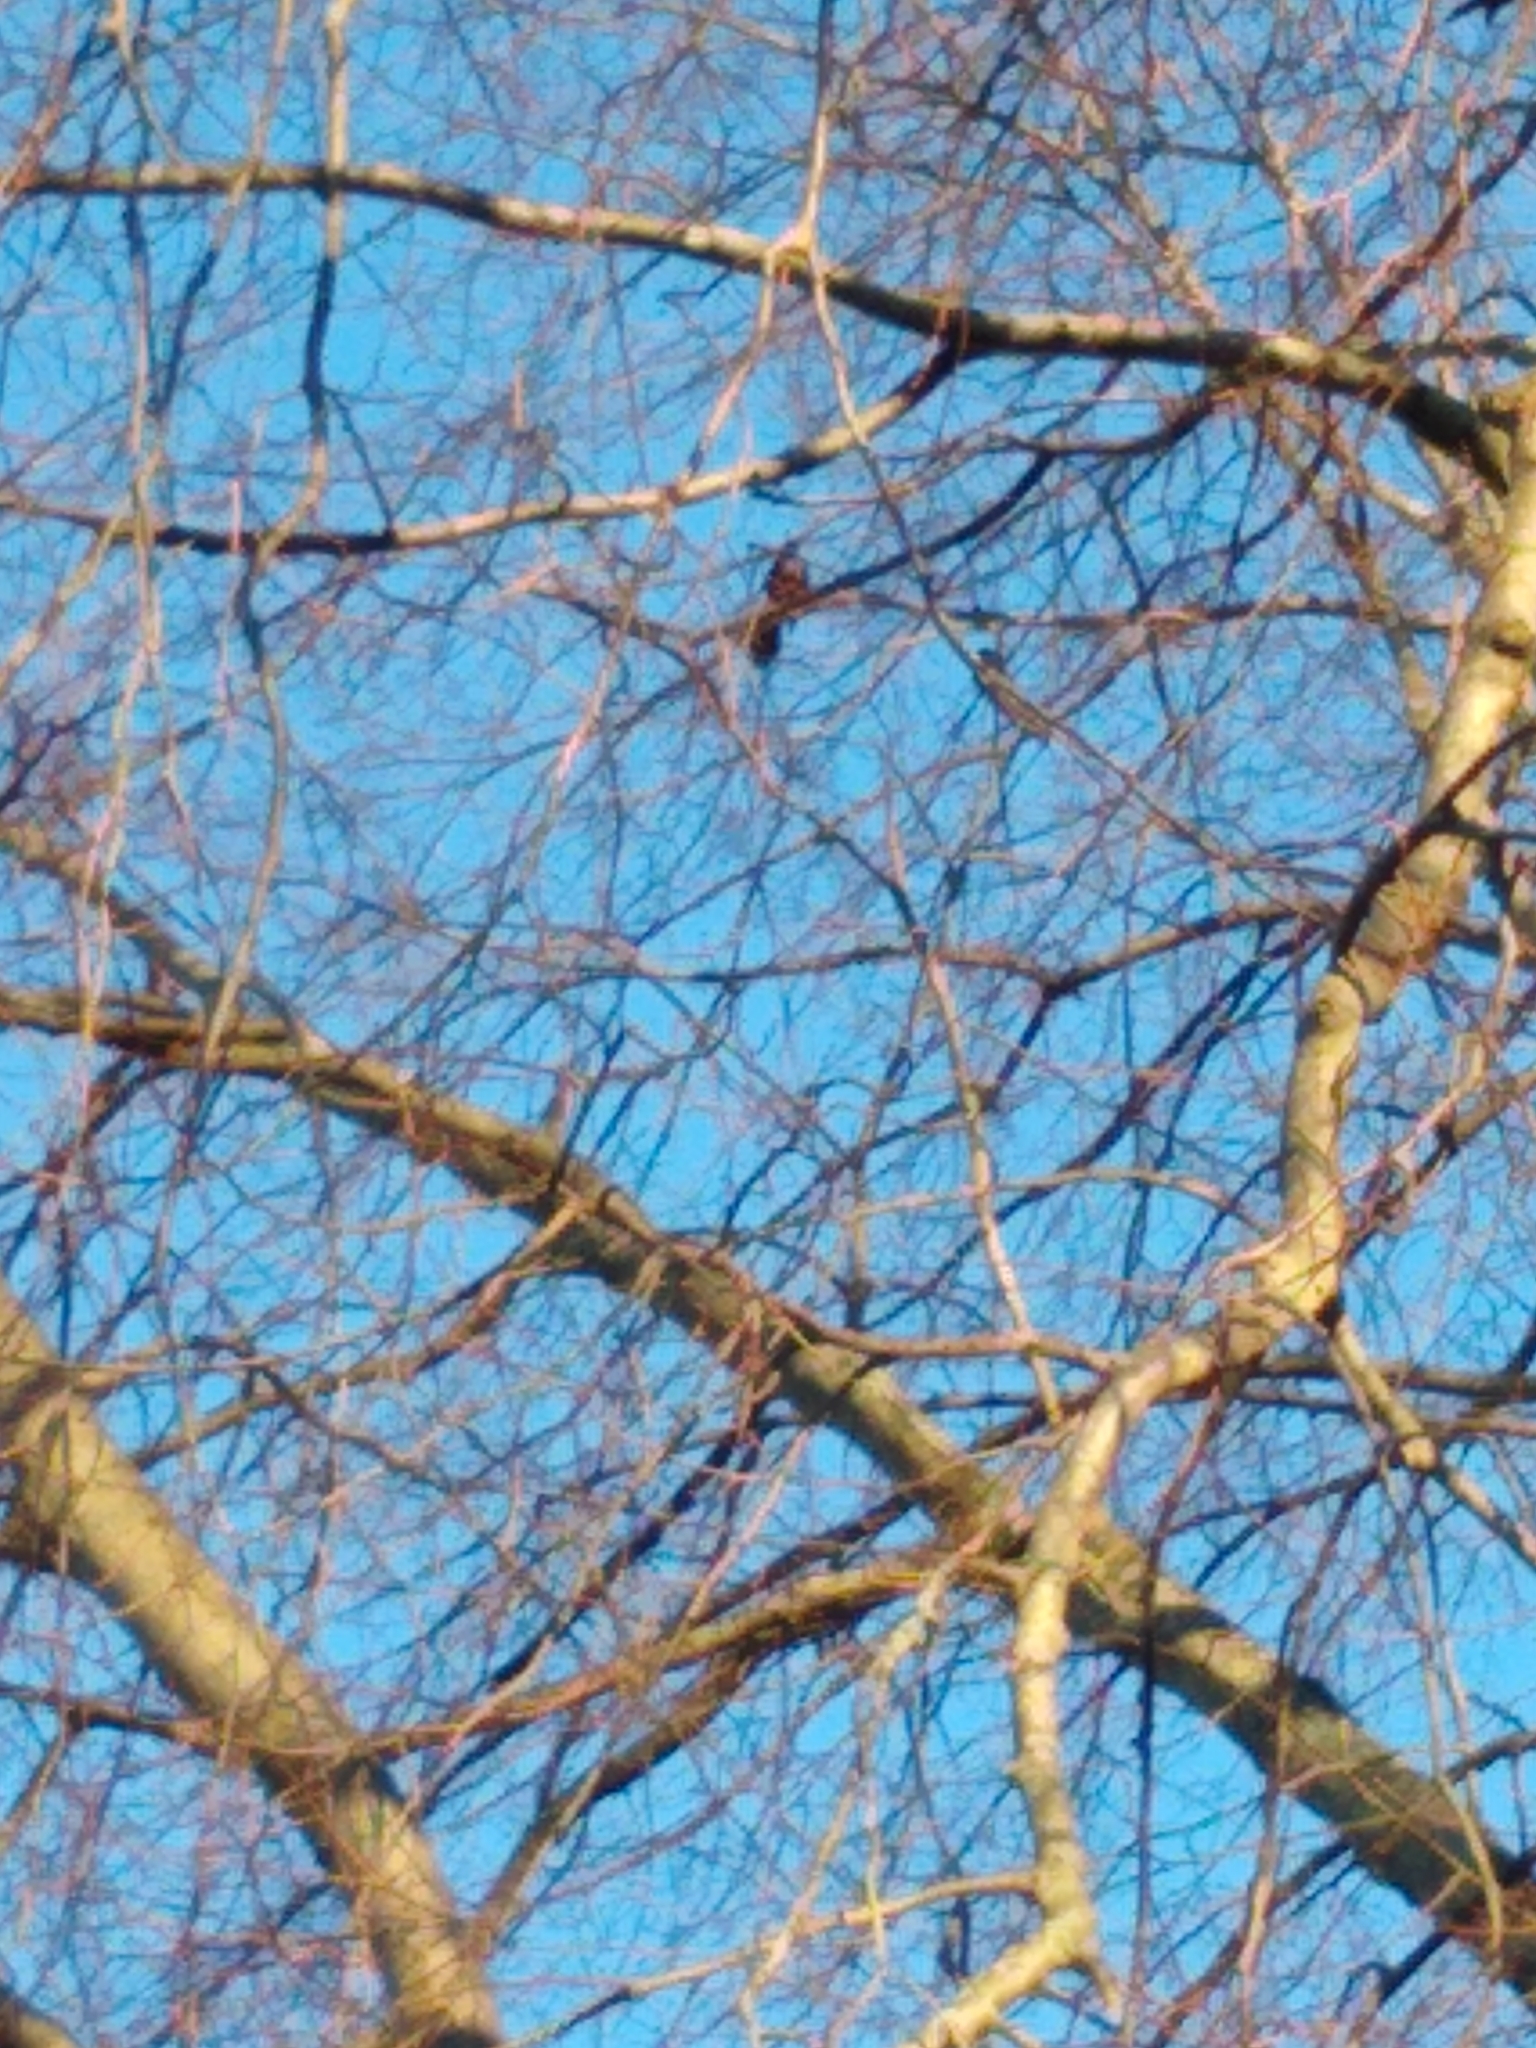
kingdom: Animalia
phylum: Chordata
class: Aves
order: Passeriformes
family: Icteridae
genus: Quiscalus
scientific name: Quiscalus quiscula
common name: Common grackle
